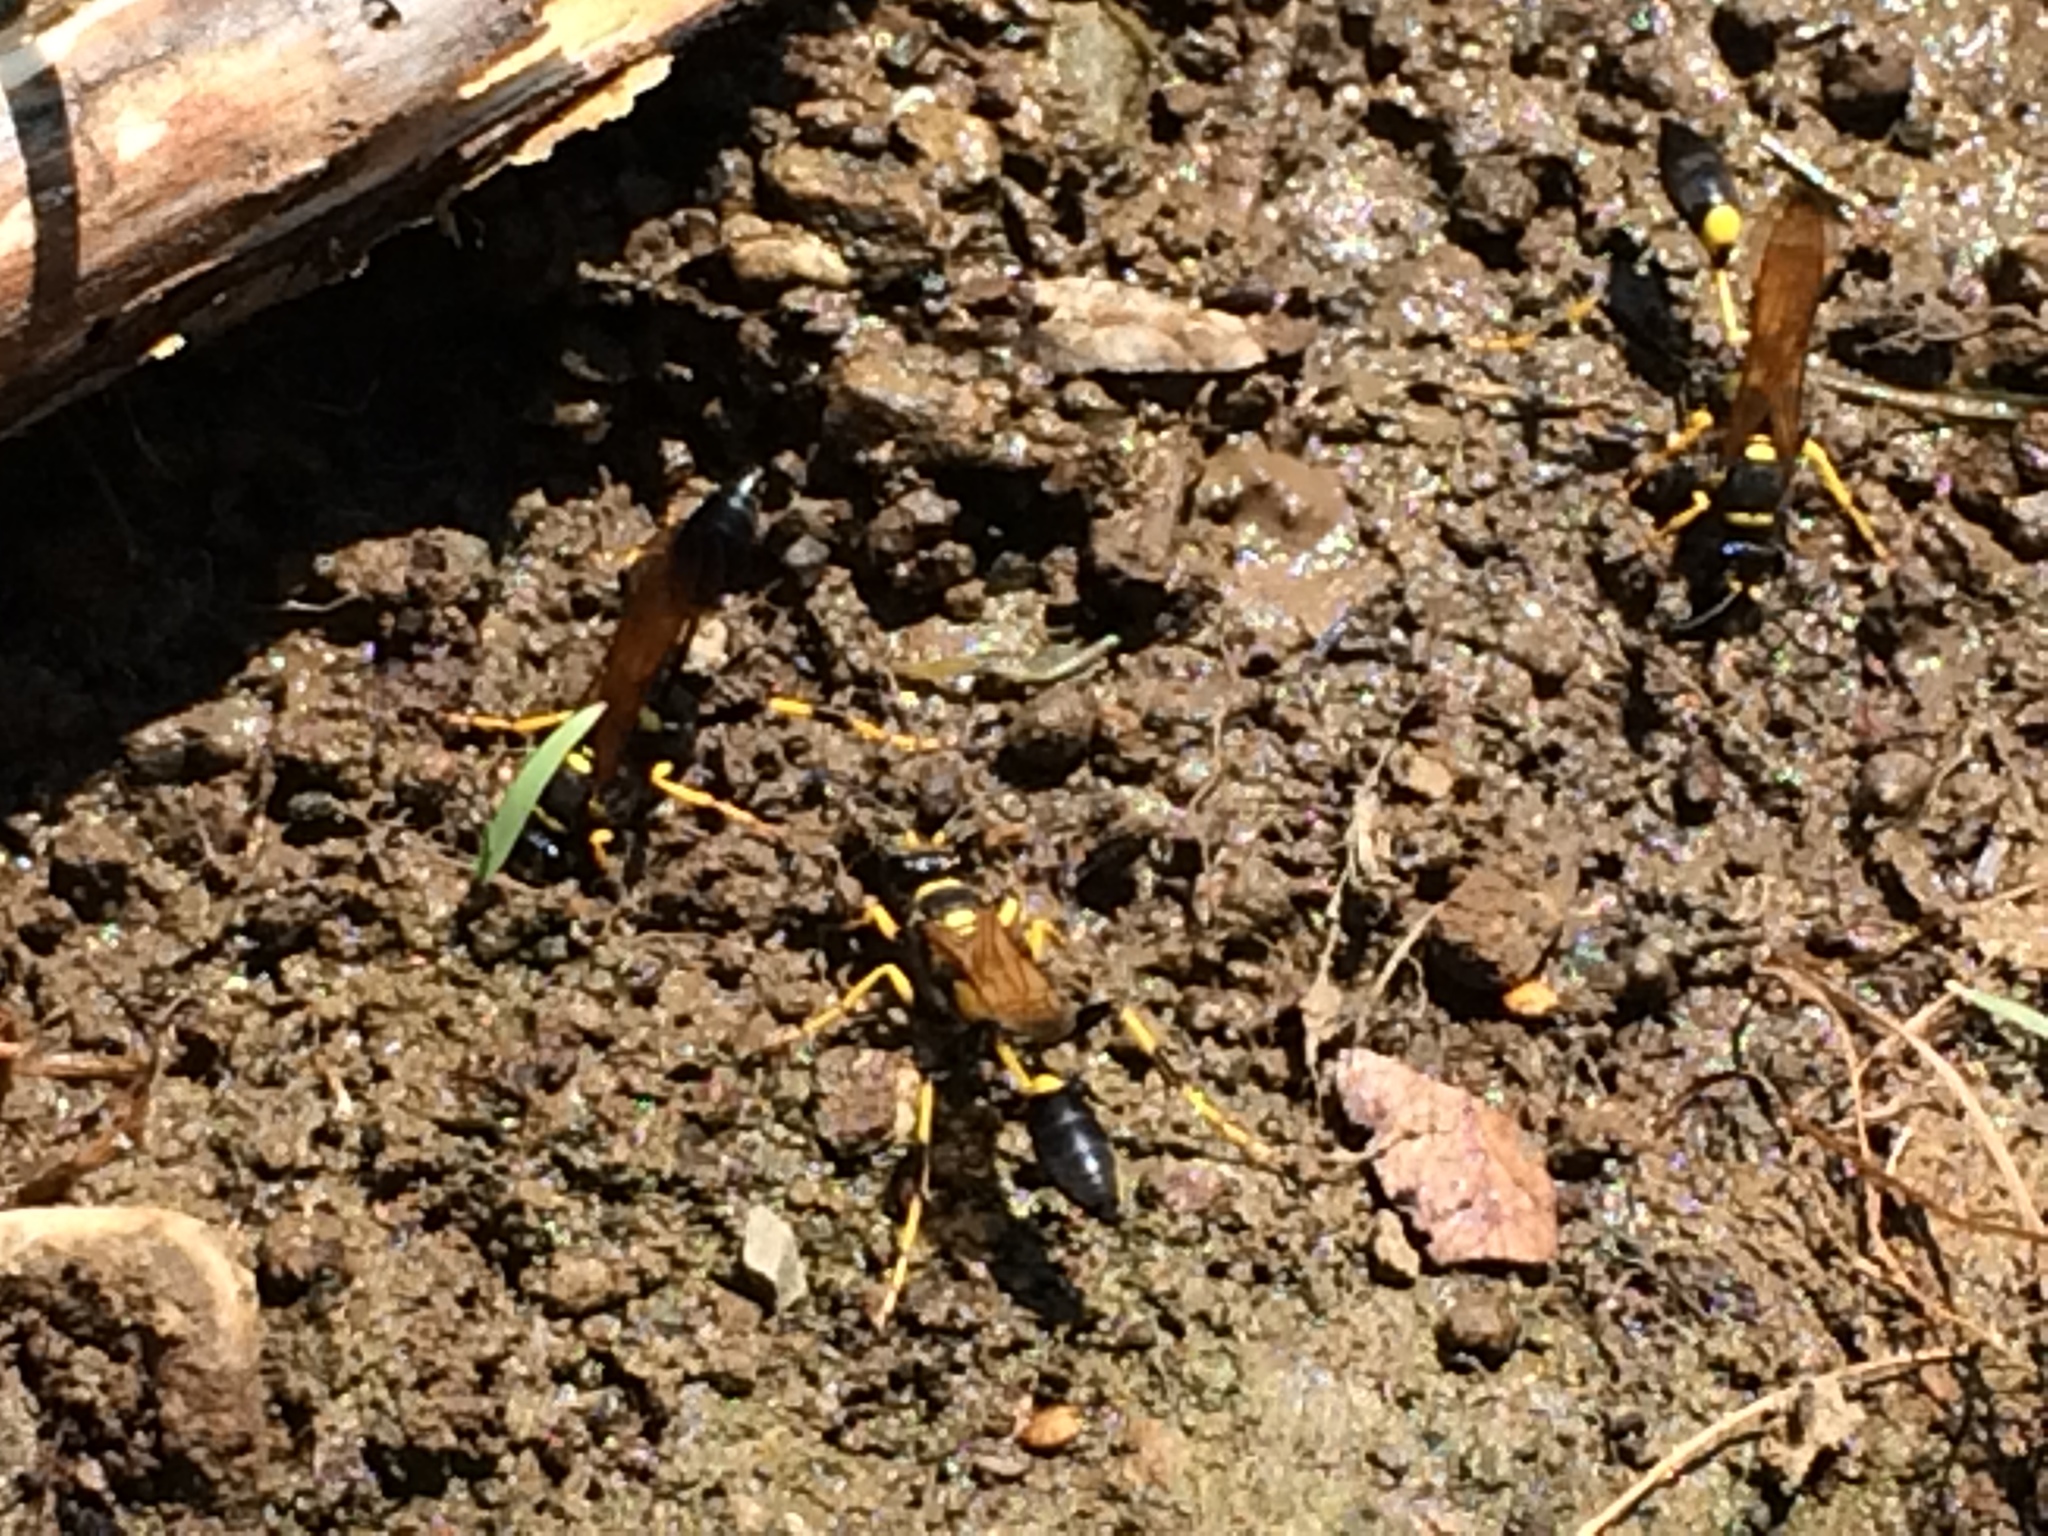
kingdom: Animalia
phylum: Arthropoda
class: Insecta
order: Hymenoptera
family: Sphecidae
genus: Sceliphron
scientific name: Sceliphron caementarium
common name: Mud dauber
